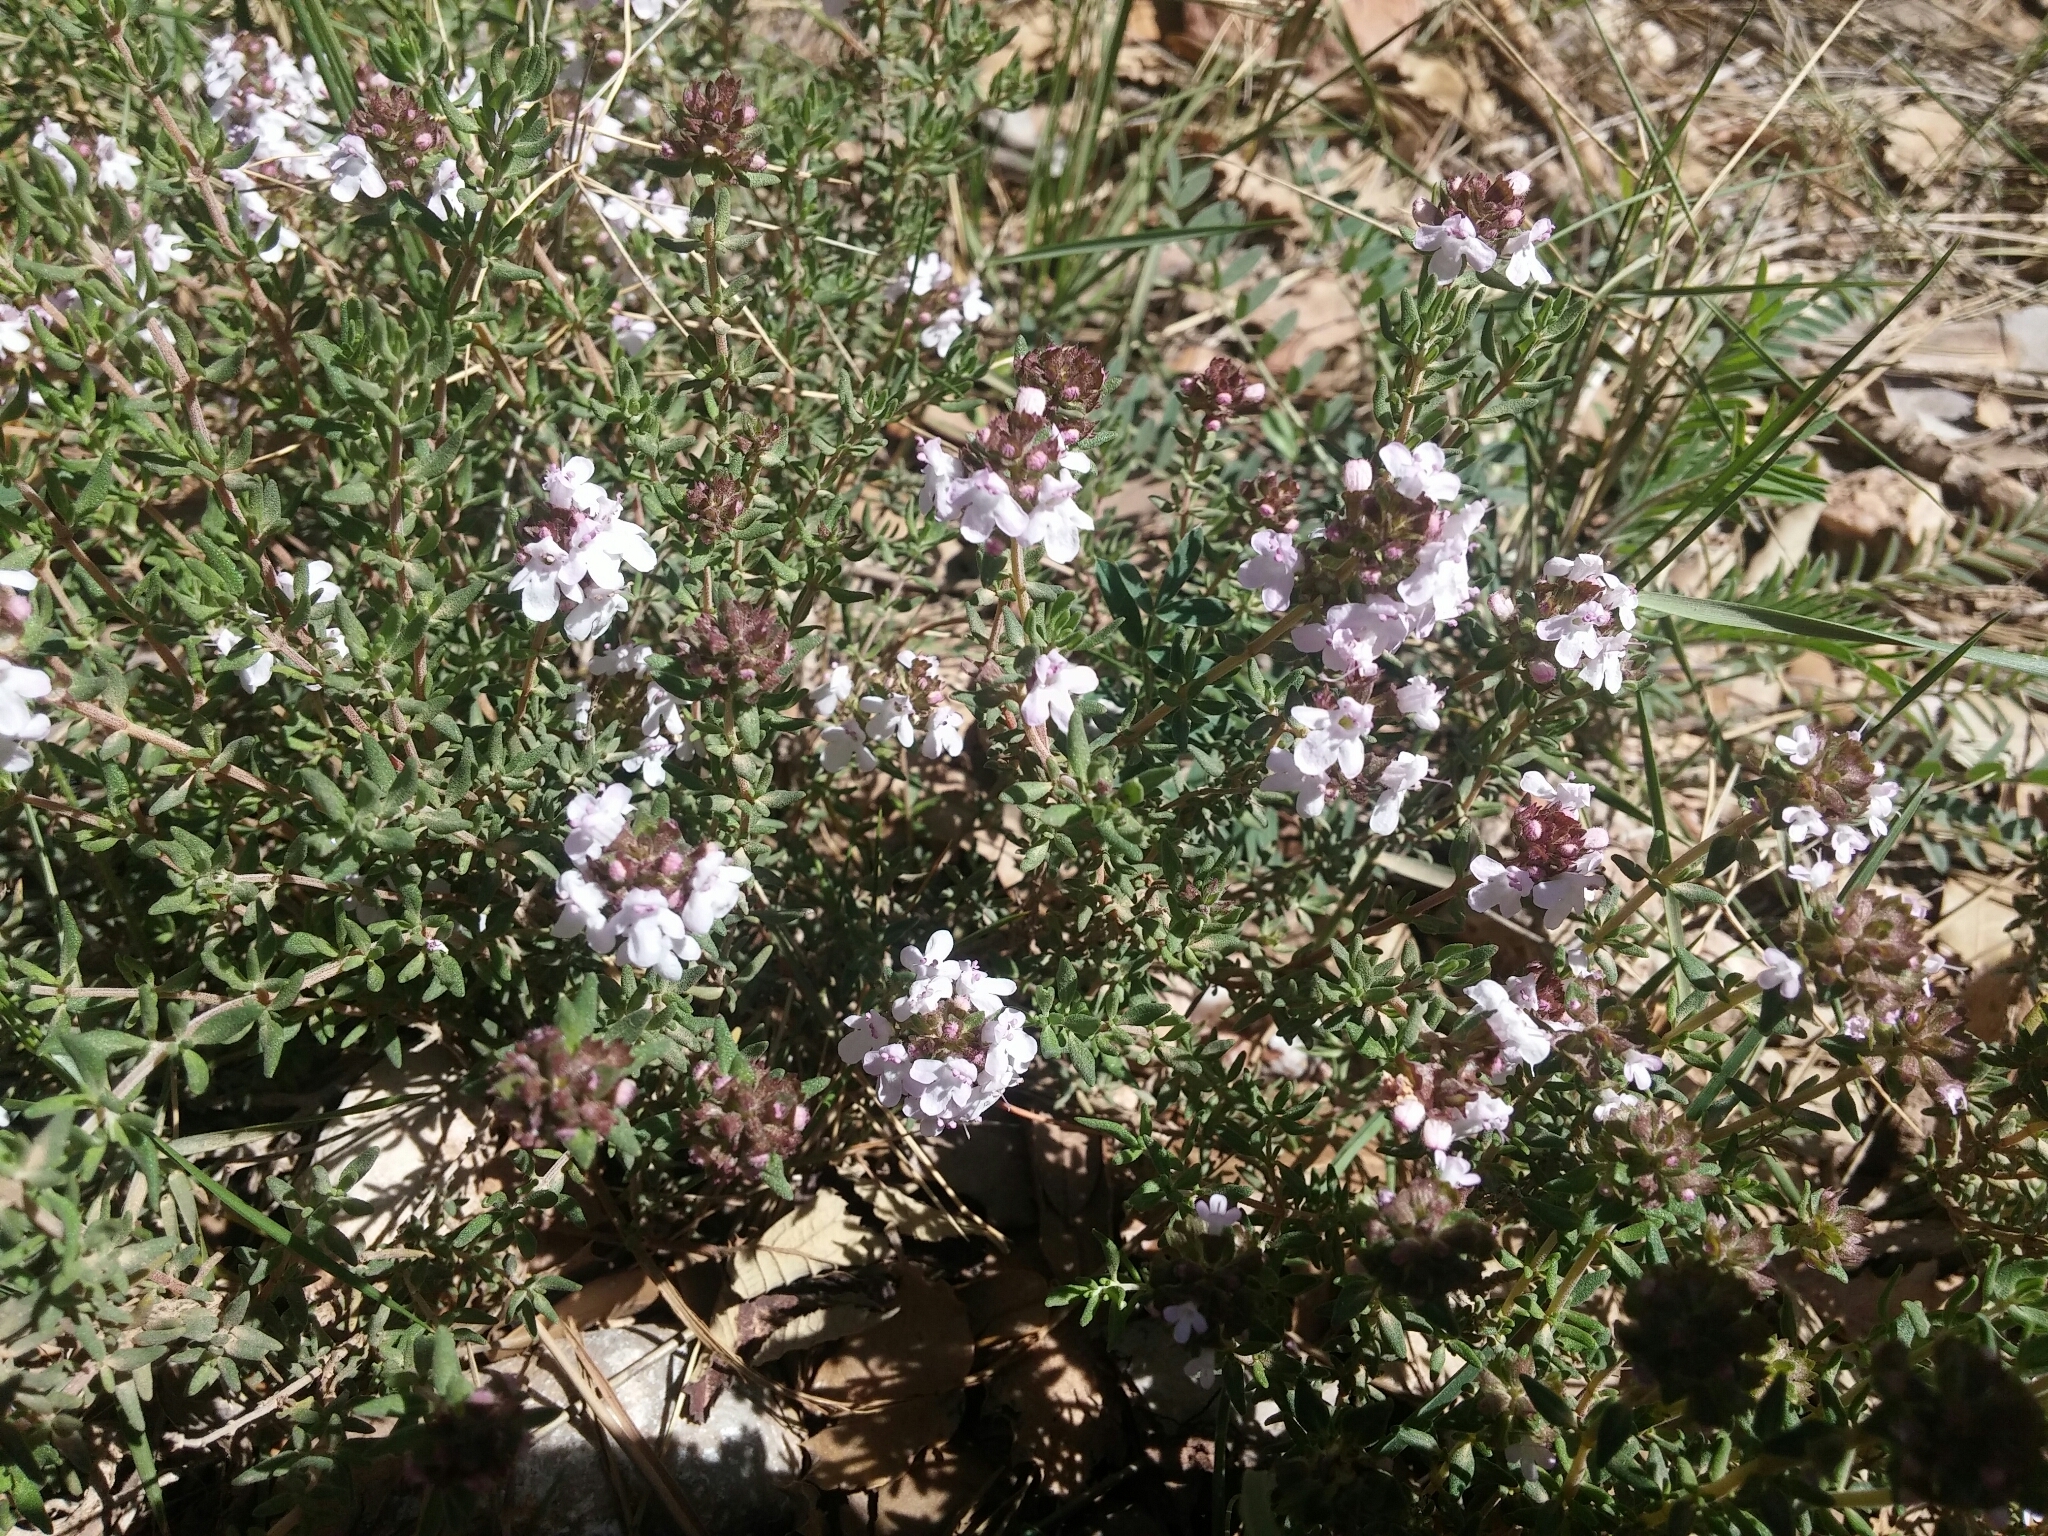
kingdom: Plantae
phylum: Tracheophyta
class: Magnoliopsida
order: Lamiales
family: Lamiaceae
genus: Thymus
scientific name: Thymus vulgaris
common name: Garden thyme
